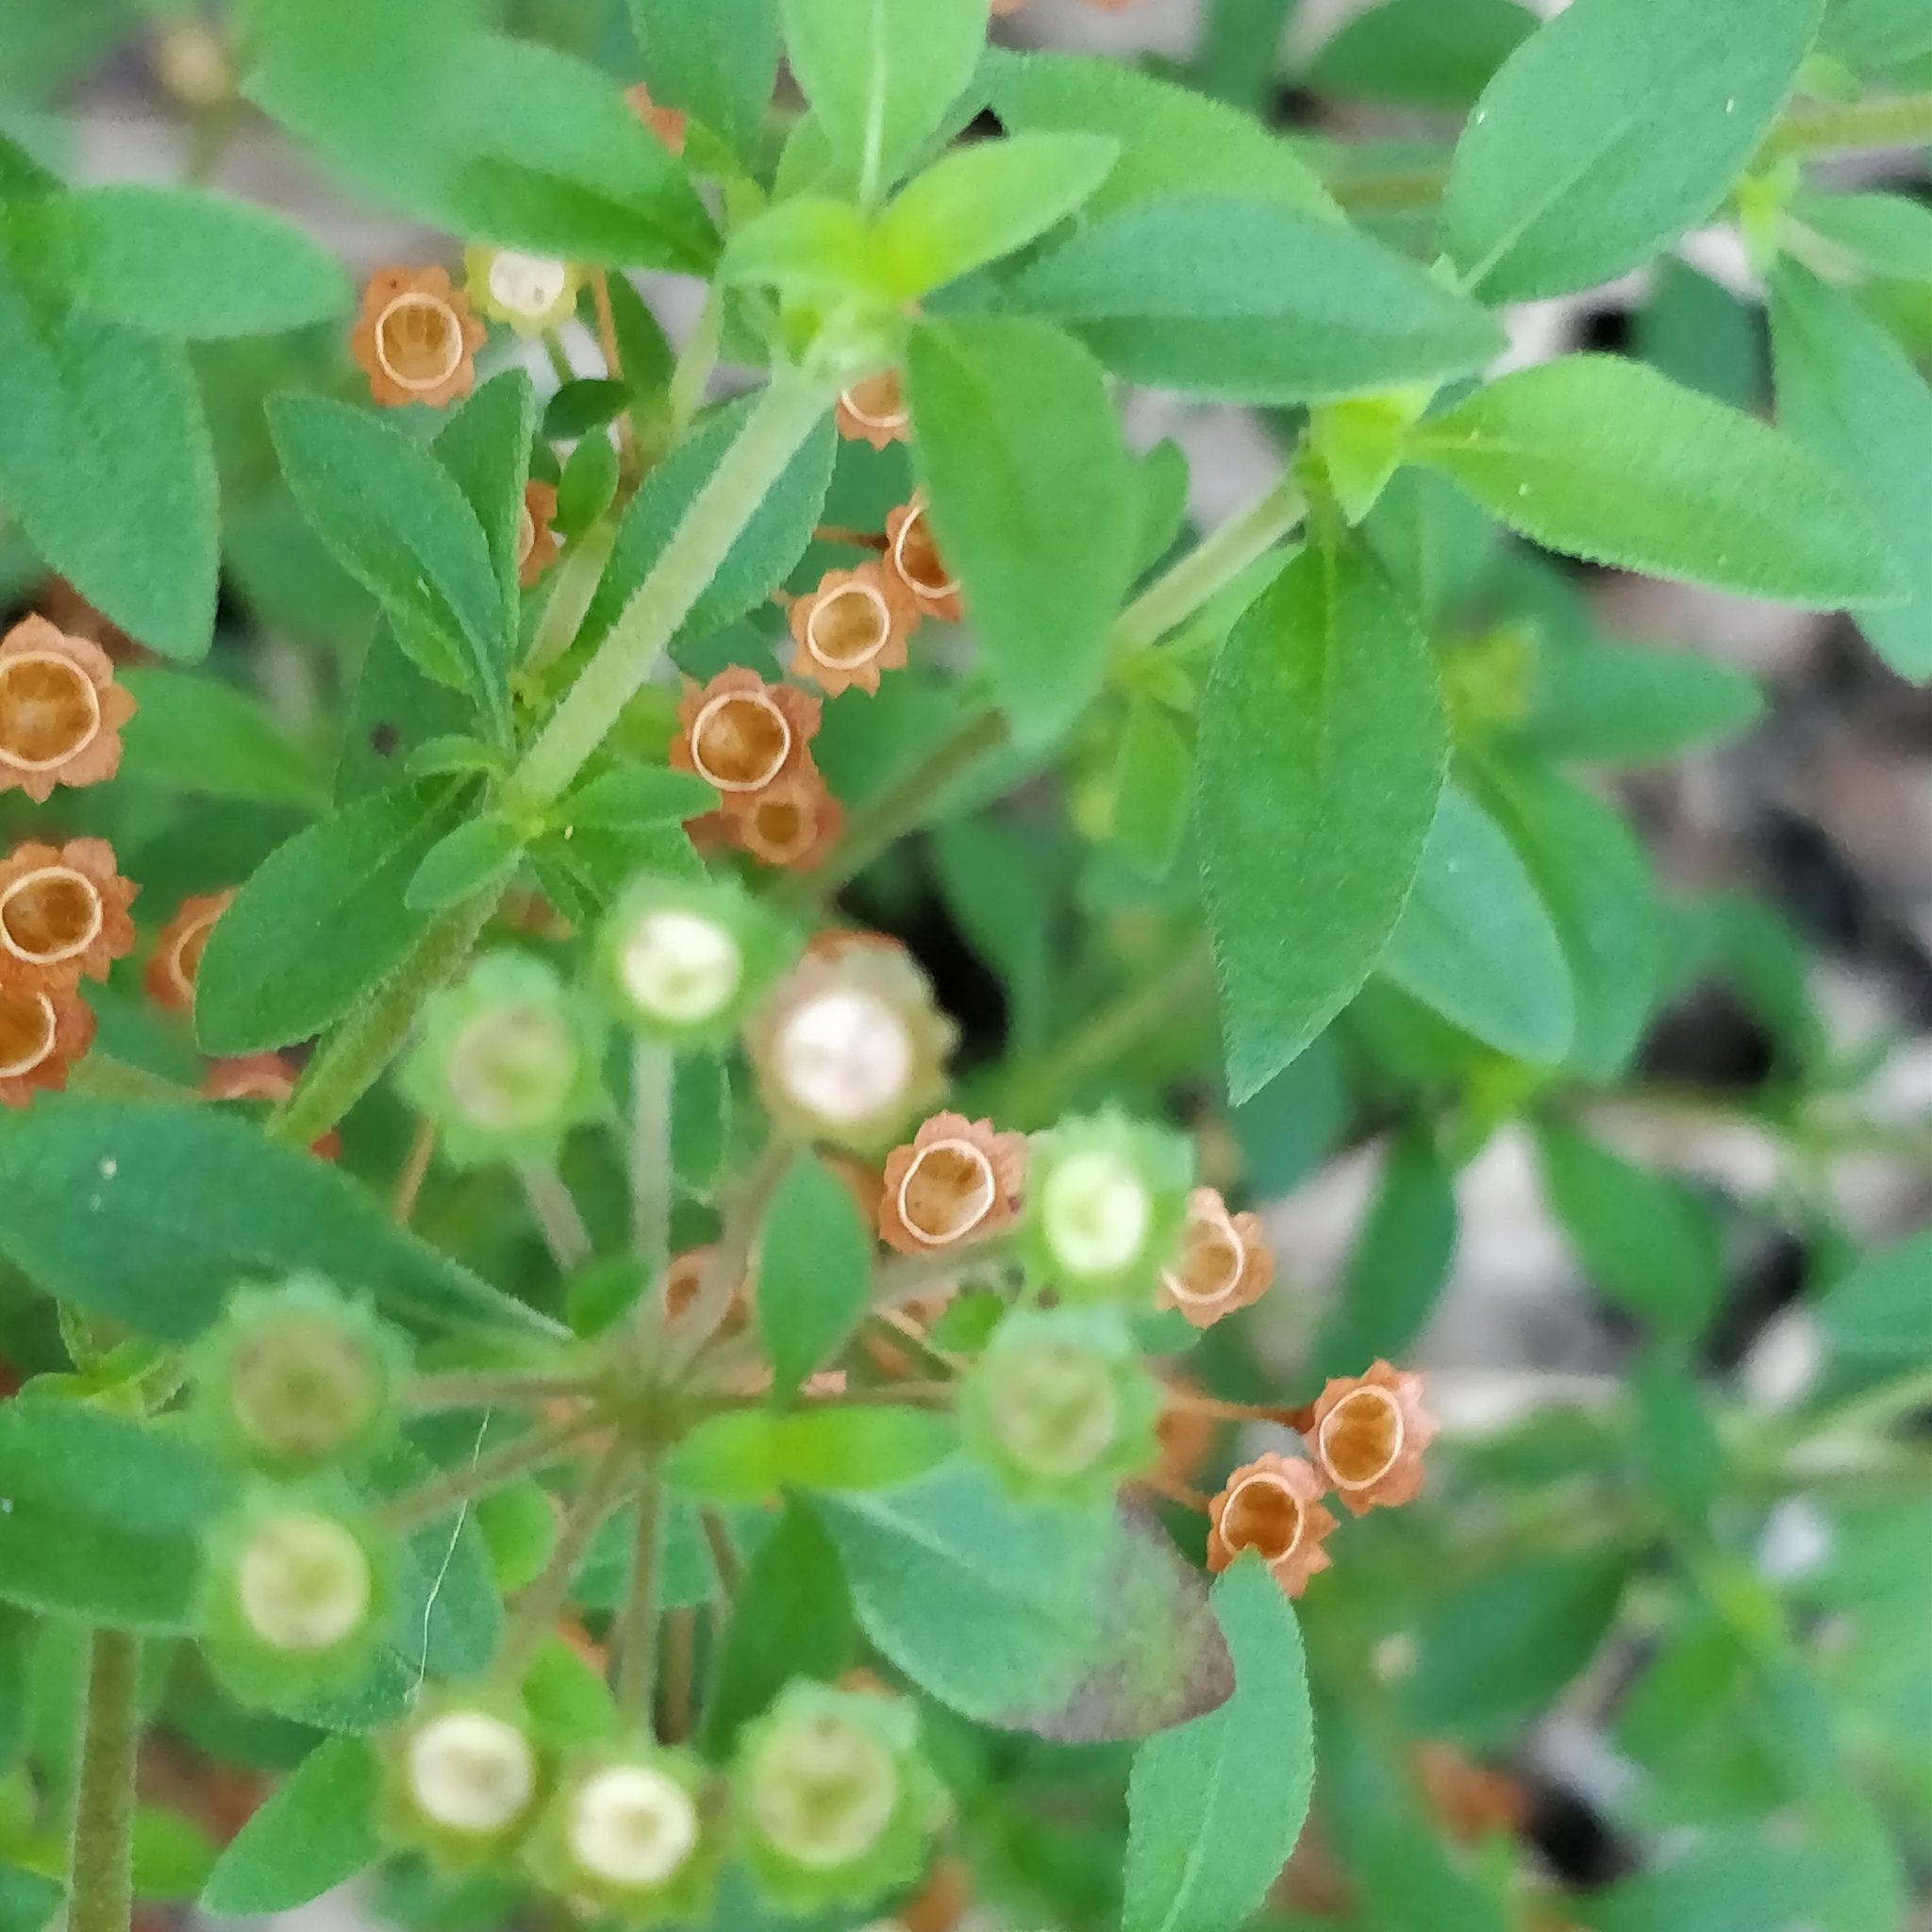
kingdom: Plantae
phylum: Tracheophyta
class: Magnoliopsida
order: Gentianales
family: Rubiaceae
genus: Pomax
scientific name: Pomax umbellata
